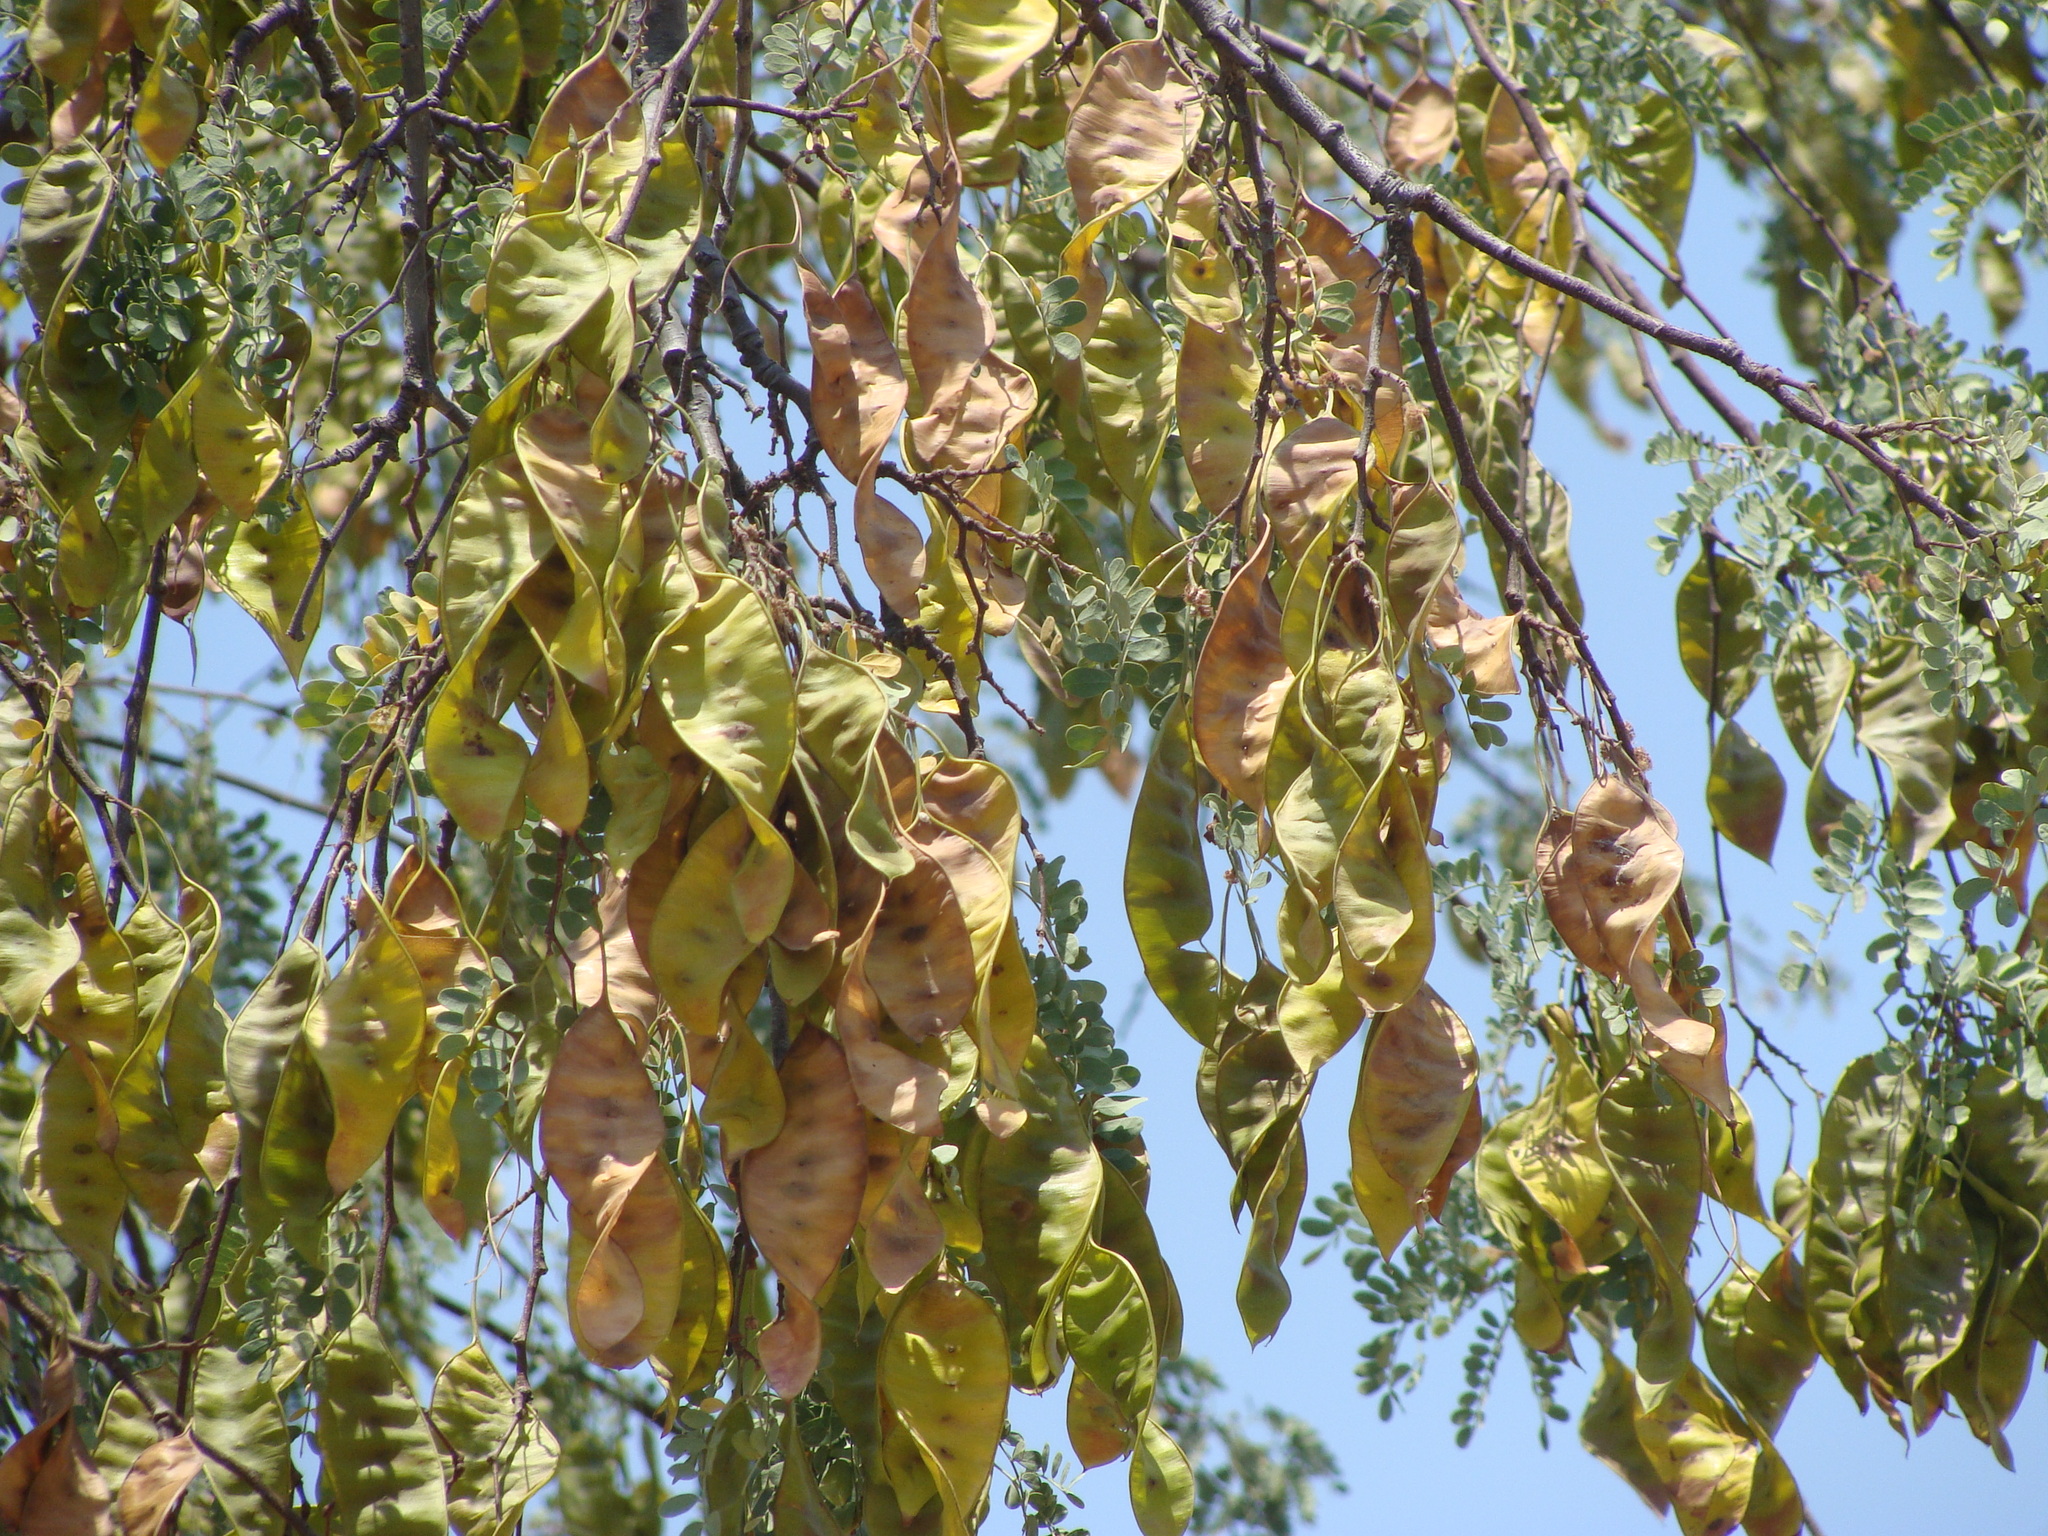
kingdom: Plantae
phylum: Tracheophyta
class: Magnoliopsida
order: Fabales
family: Fabaceae
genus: Lysiloma
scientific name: Lysiloma candidum
